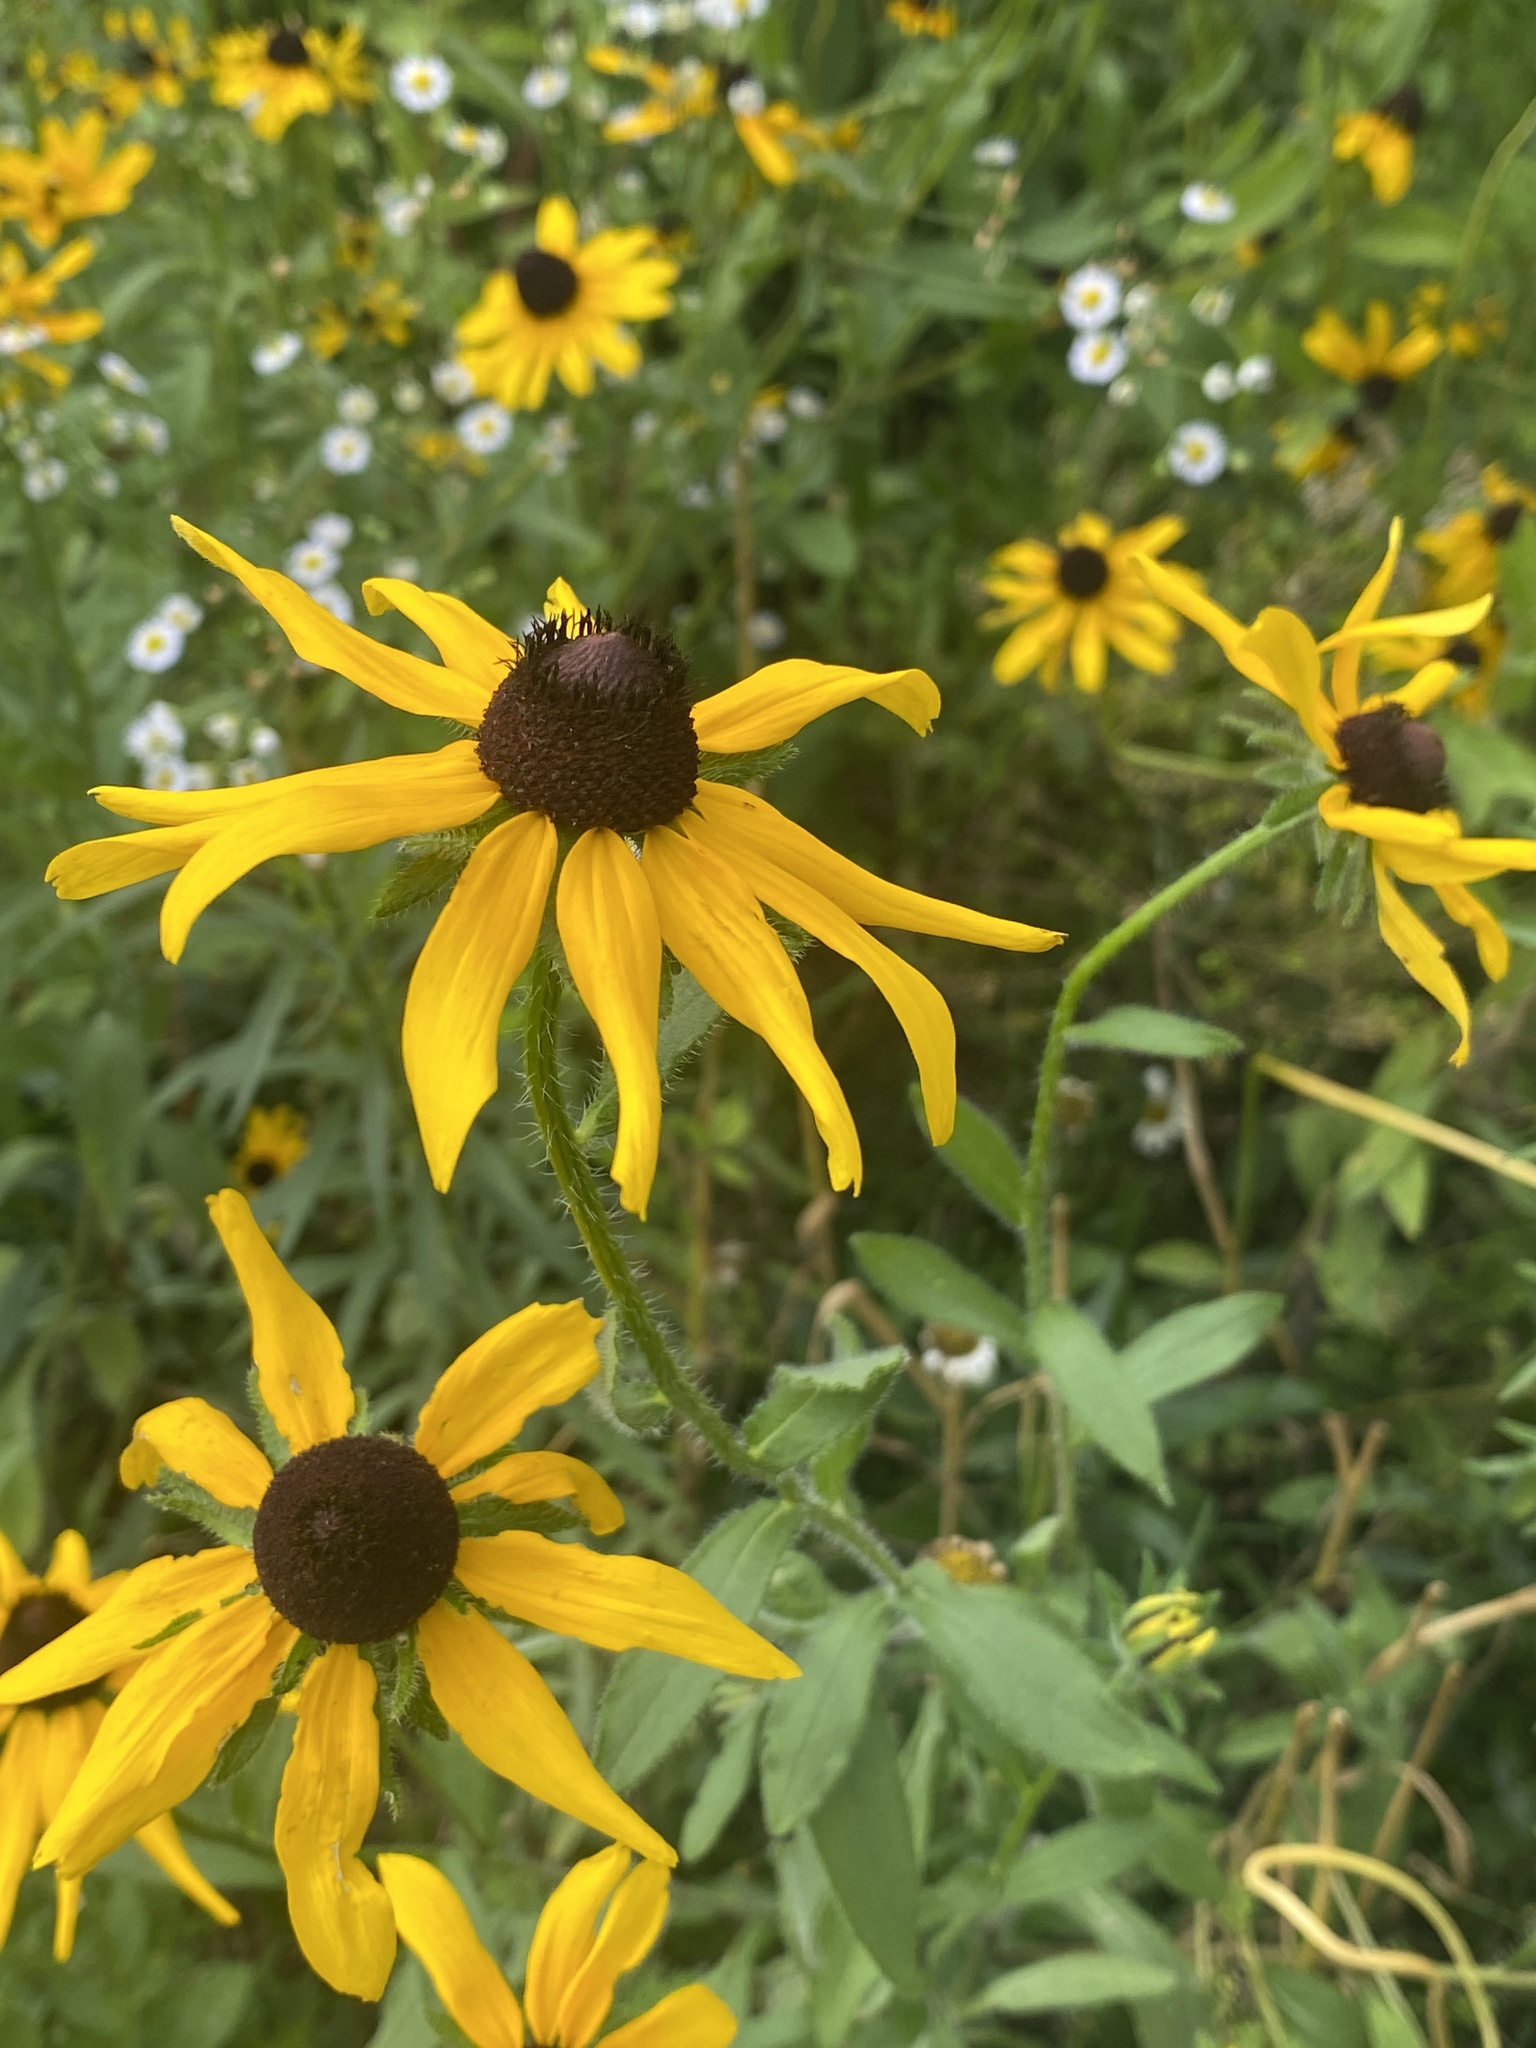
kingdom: Plantae
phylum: Tracheophyta
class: Magnoliopsida
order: Asterales
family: Asteraceae
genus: Rudbeckia
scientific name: Rudbeckia hirta
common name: Black-eyed-susan
